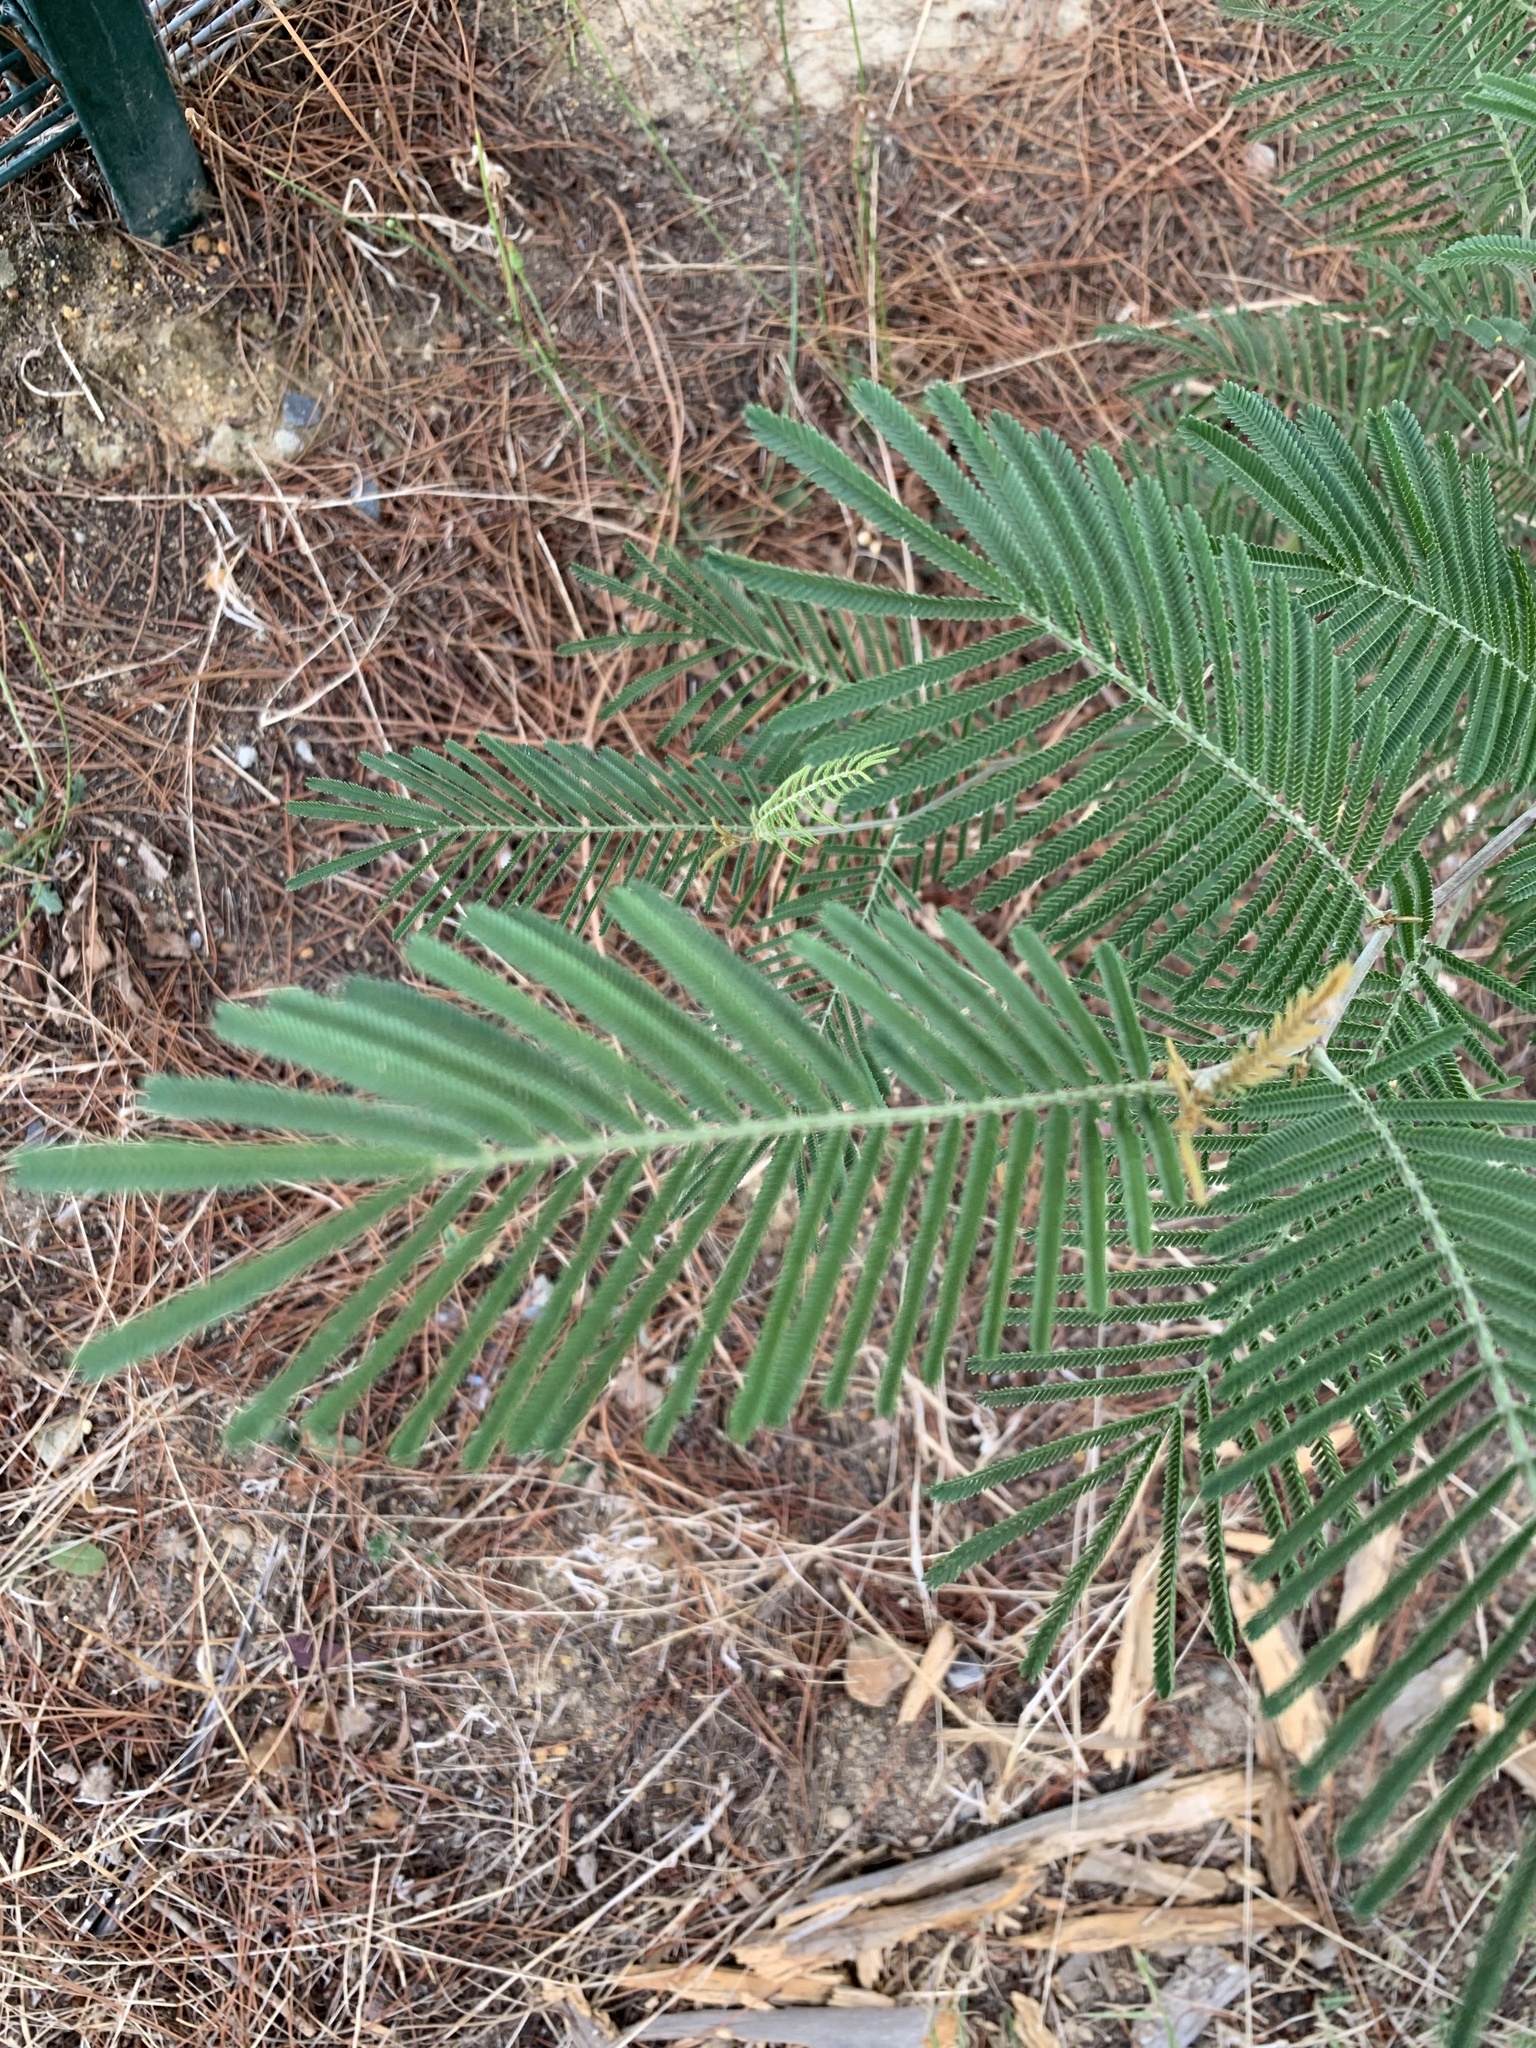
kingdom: Plantae
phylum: Tracheophyta
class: Magnoliopsida
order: Fabales
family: Fabaceae
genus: Acacia
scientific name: Acacia mearnsii
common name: Black wattle
